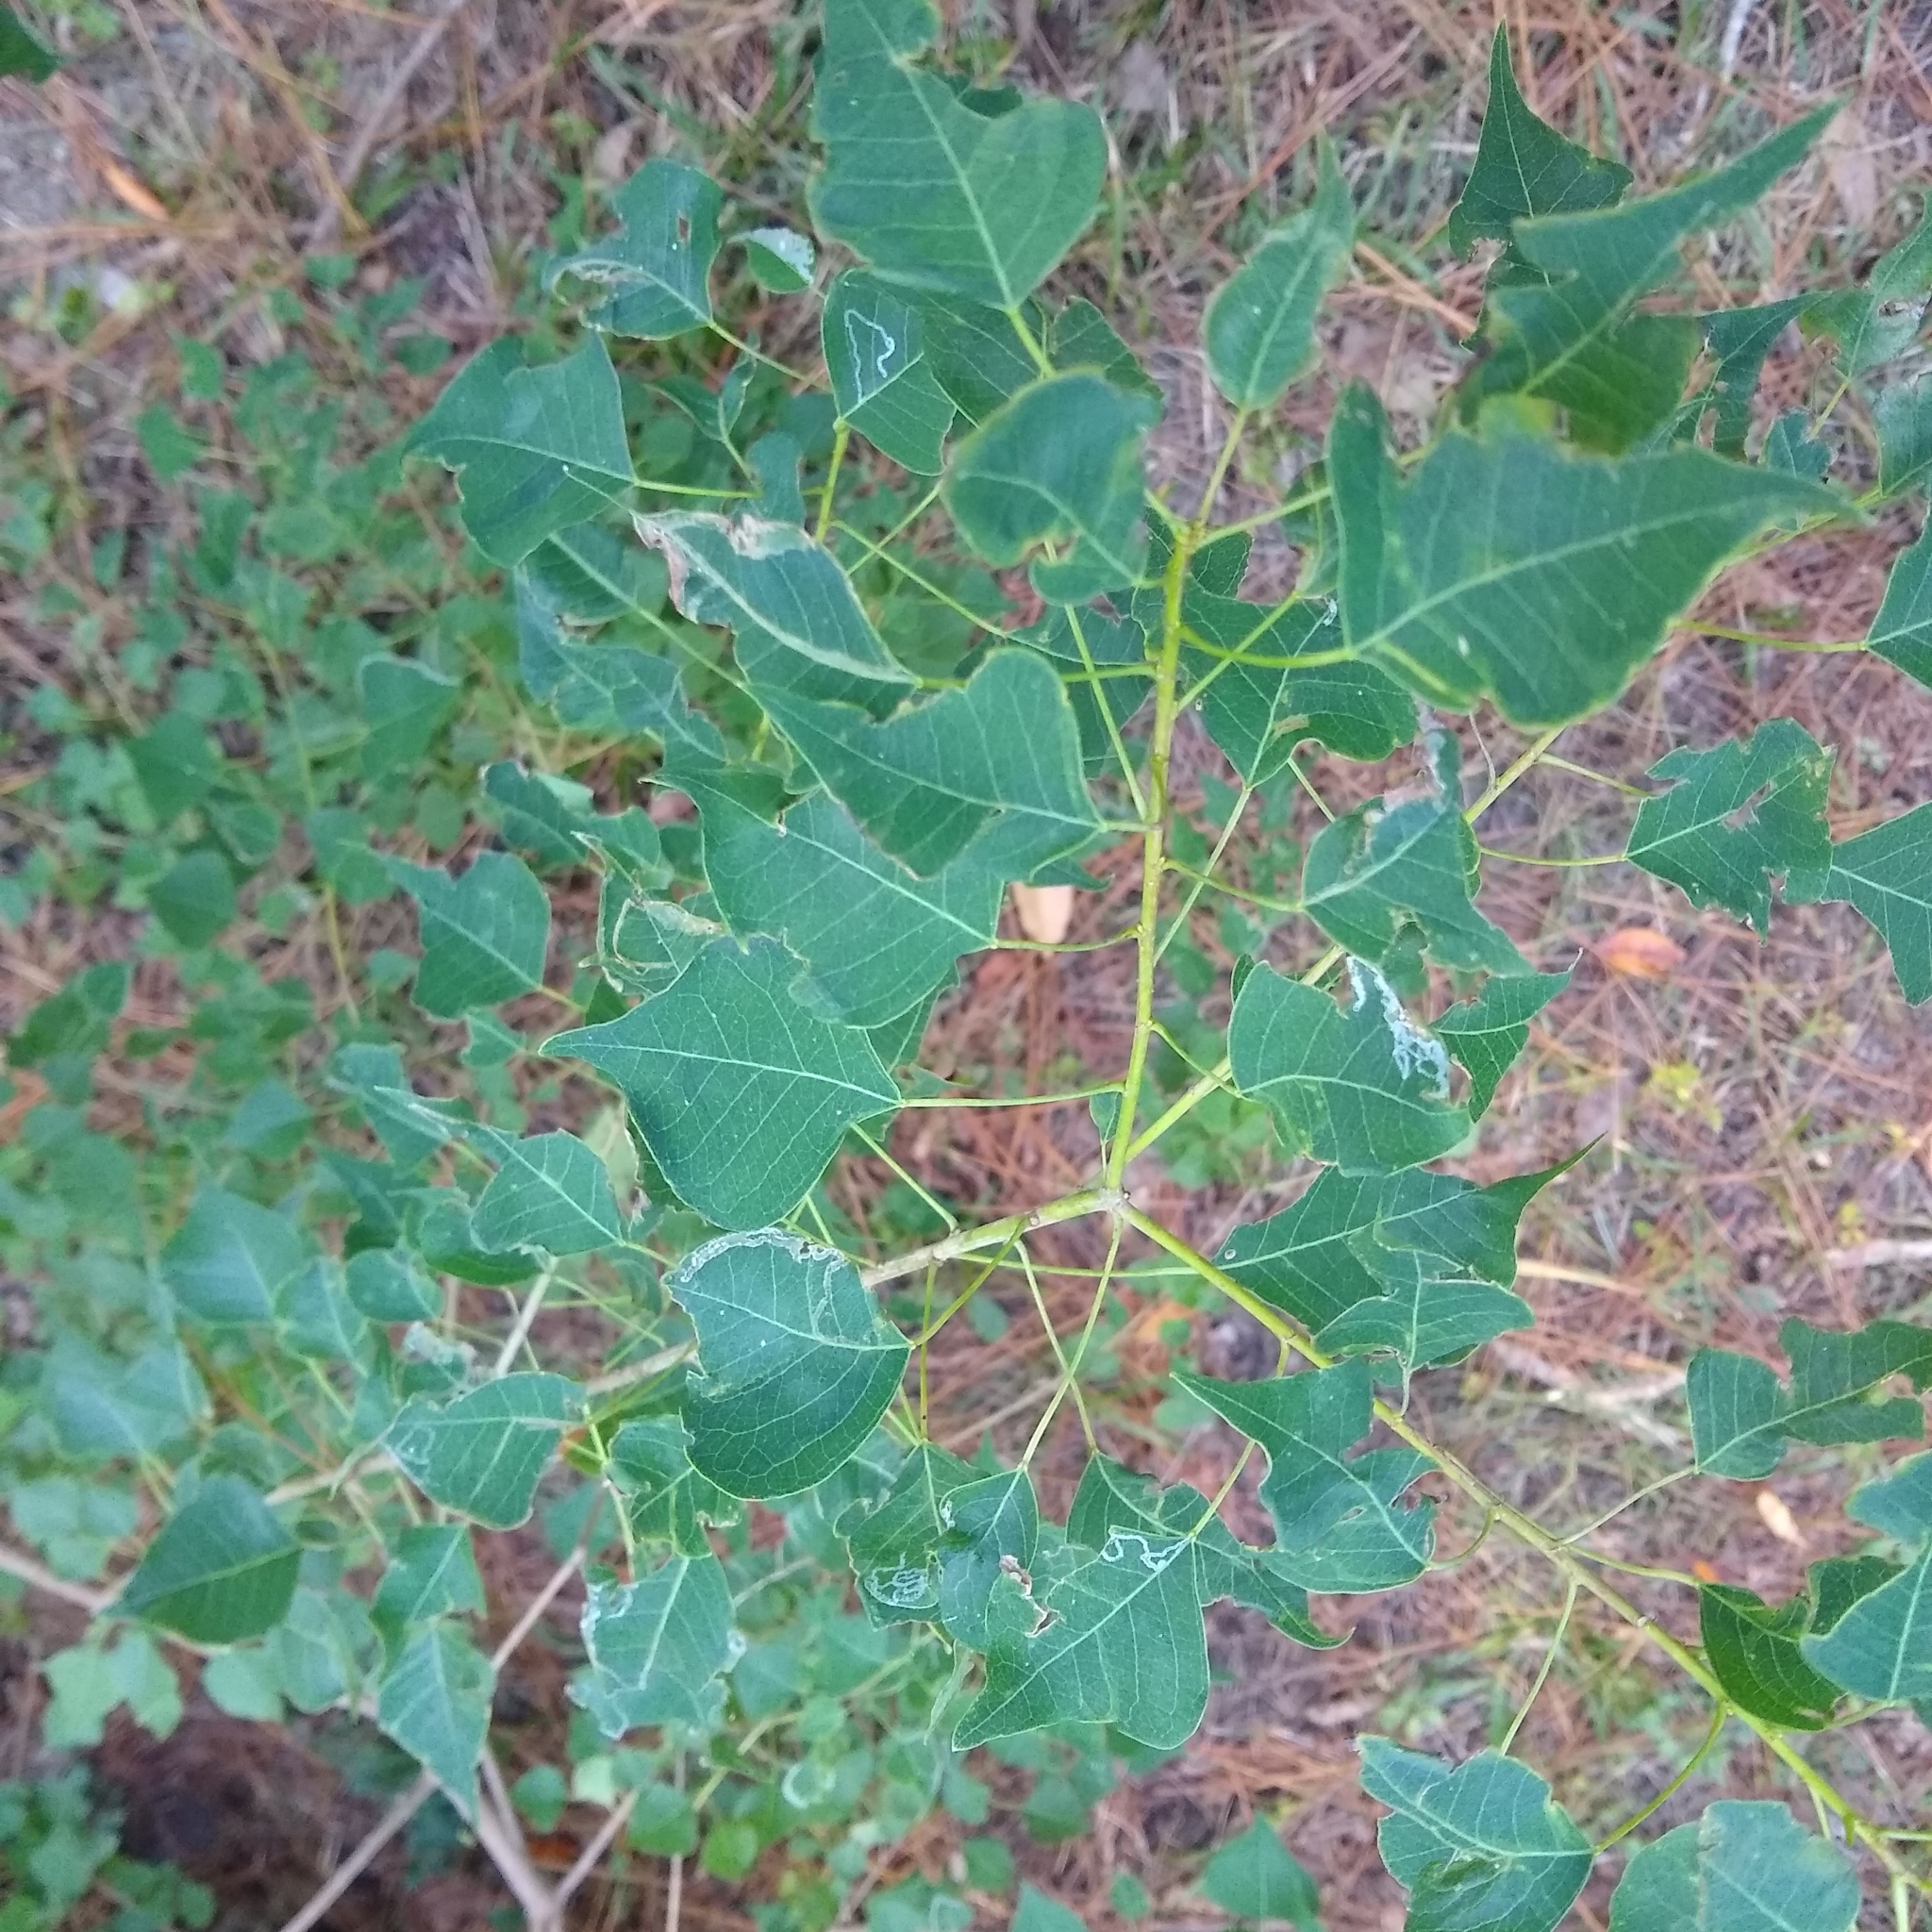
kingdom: Plantae
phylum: Tracheophyta
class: Magnoliopsida
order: Malpighiales
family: Euphorbiaceae
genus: Triadica
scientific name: Triadica sebifera
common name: Chinese tallow
